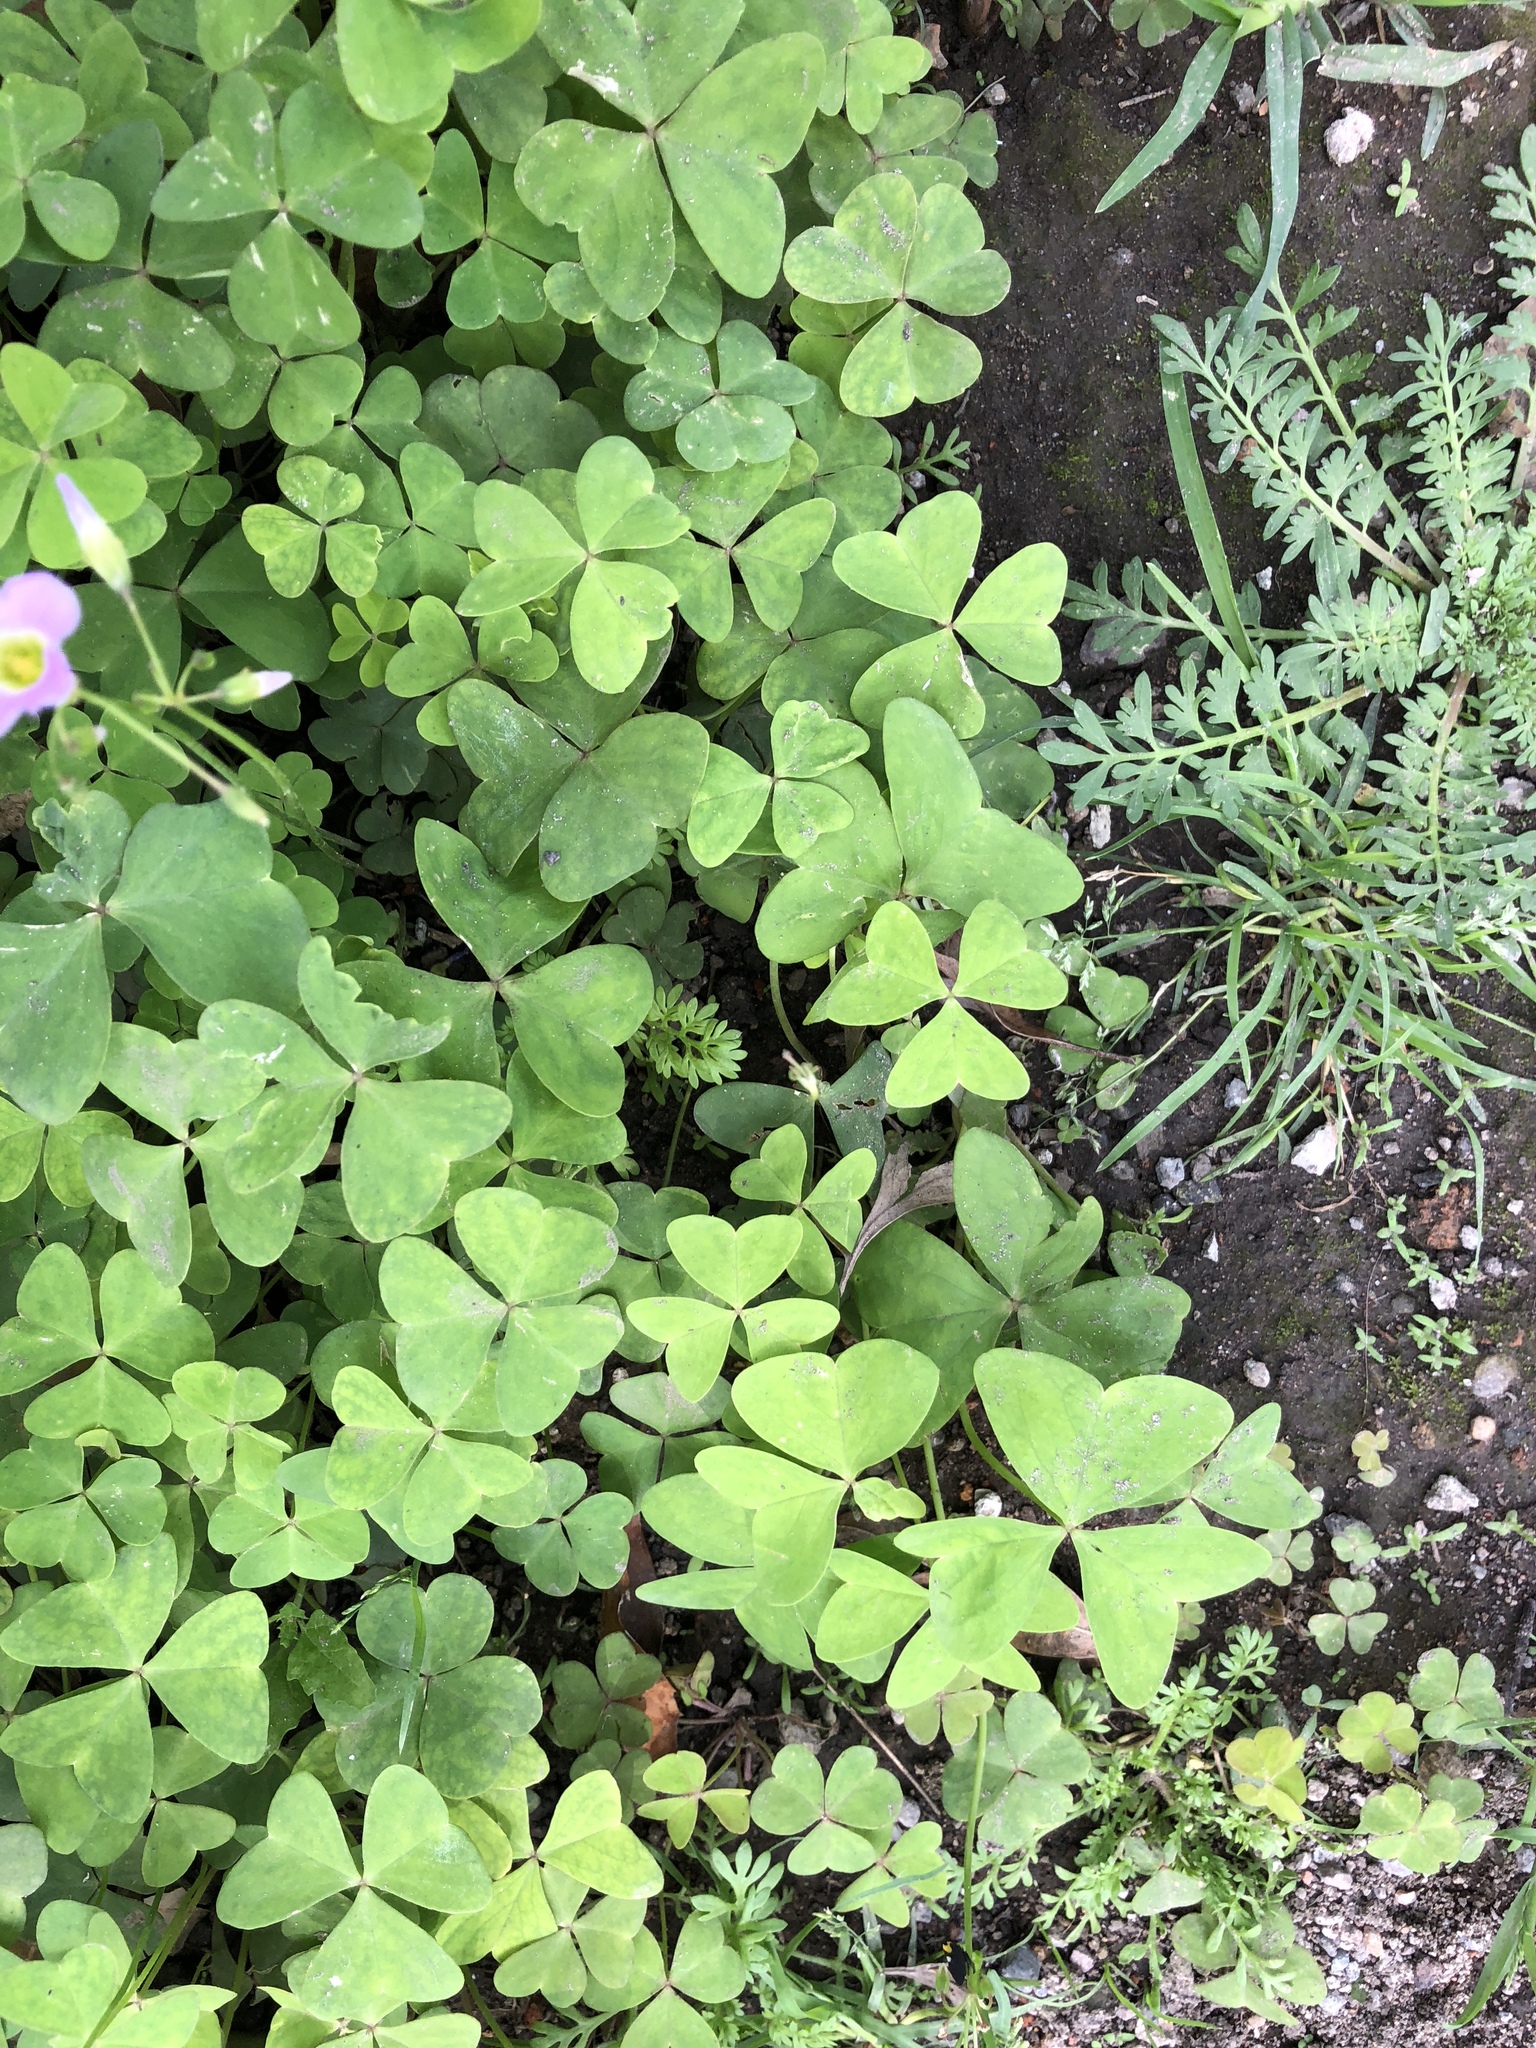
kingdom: Plantae
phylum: Tracheophyta
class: Magnoliopsida
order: Oxalidales
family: Oxalidaceae
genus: Oxalis
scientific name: Oxalis latifolia
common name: Garden pink-sorrel
